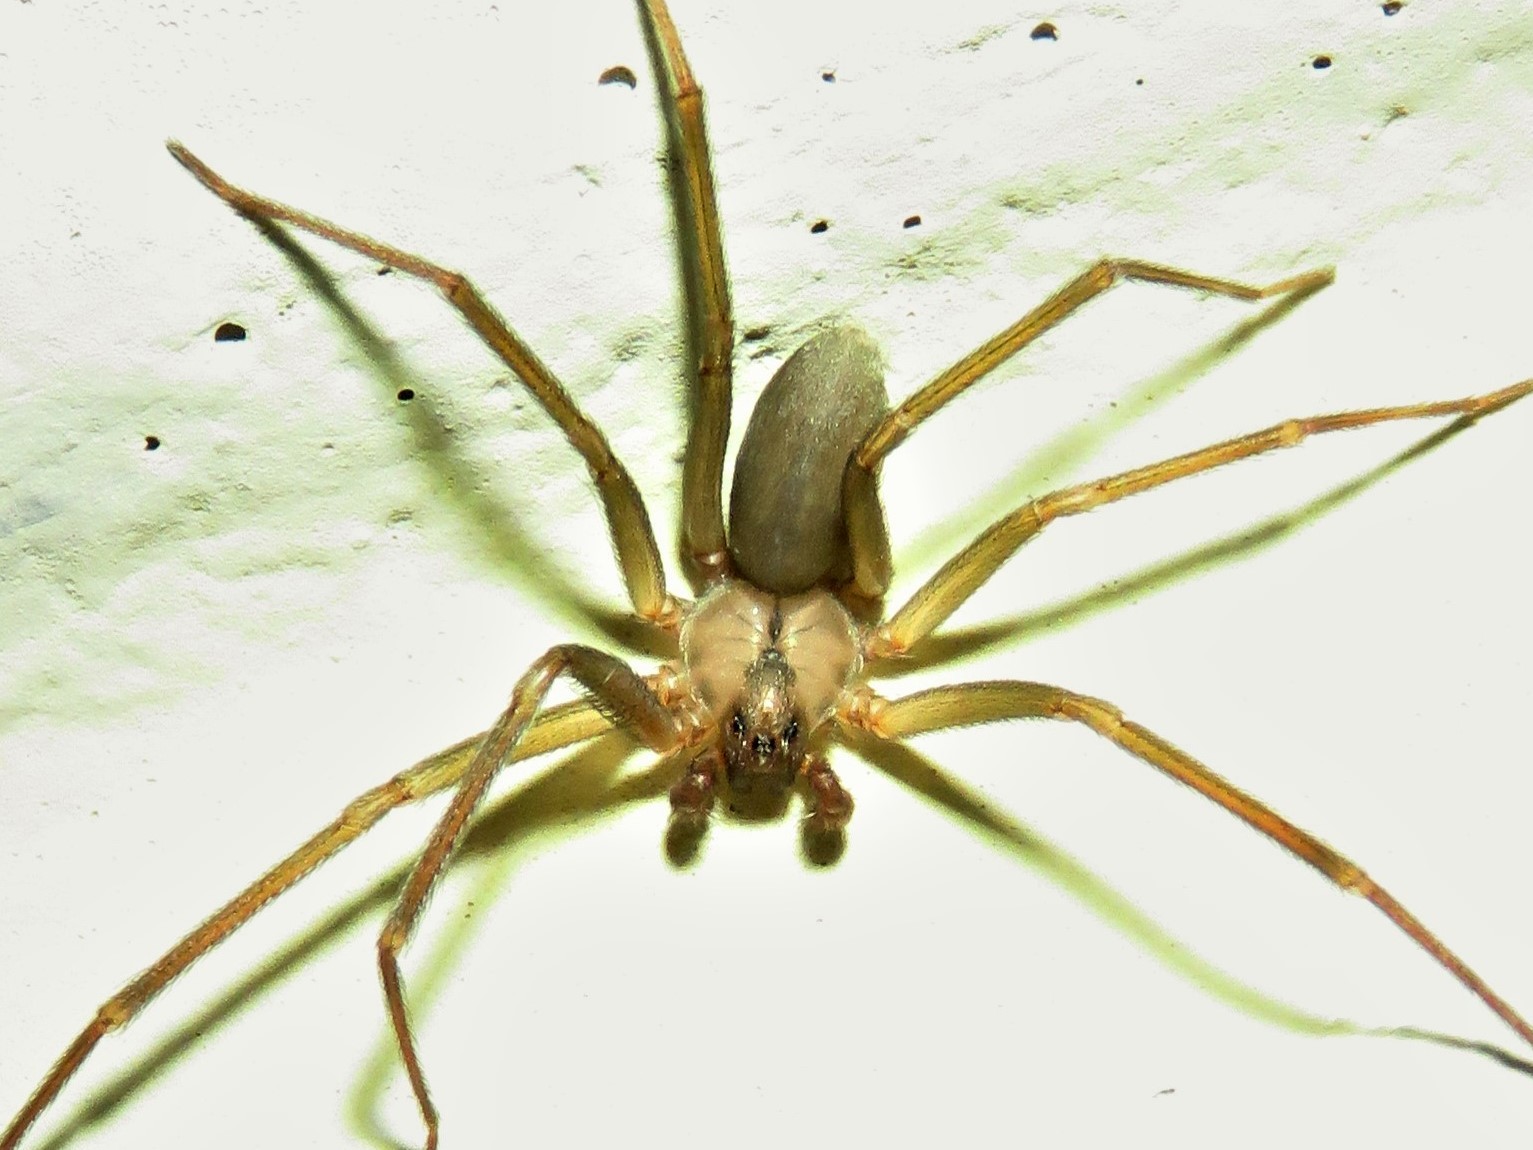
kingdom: Animalia
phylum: Arthropoda
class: Arachnida
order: Araneae
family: Sicariidae
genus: Loxosceles
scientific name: Loxosceles reclusa
